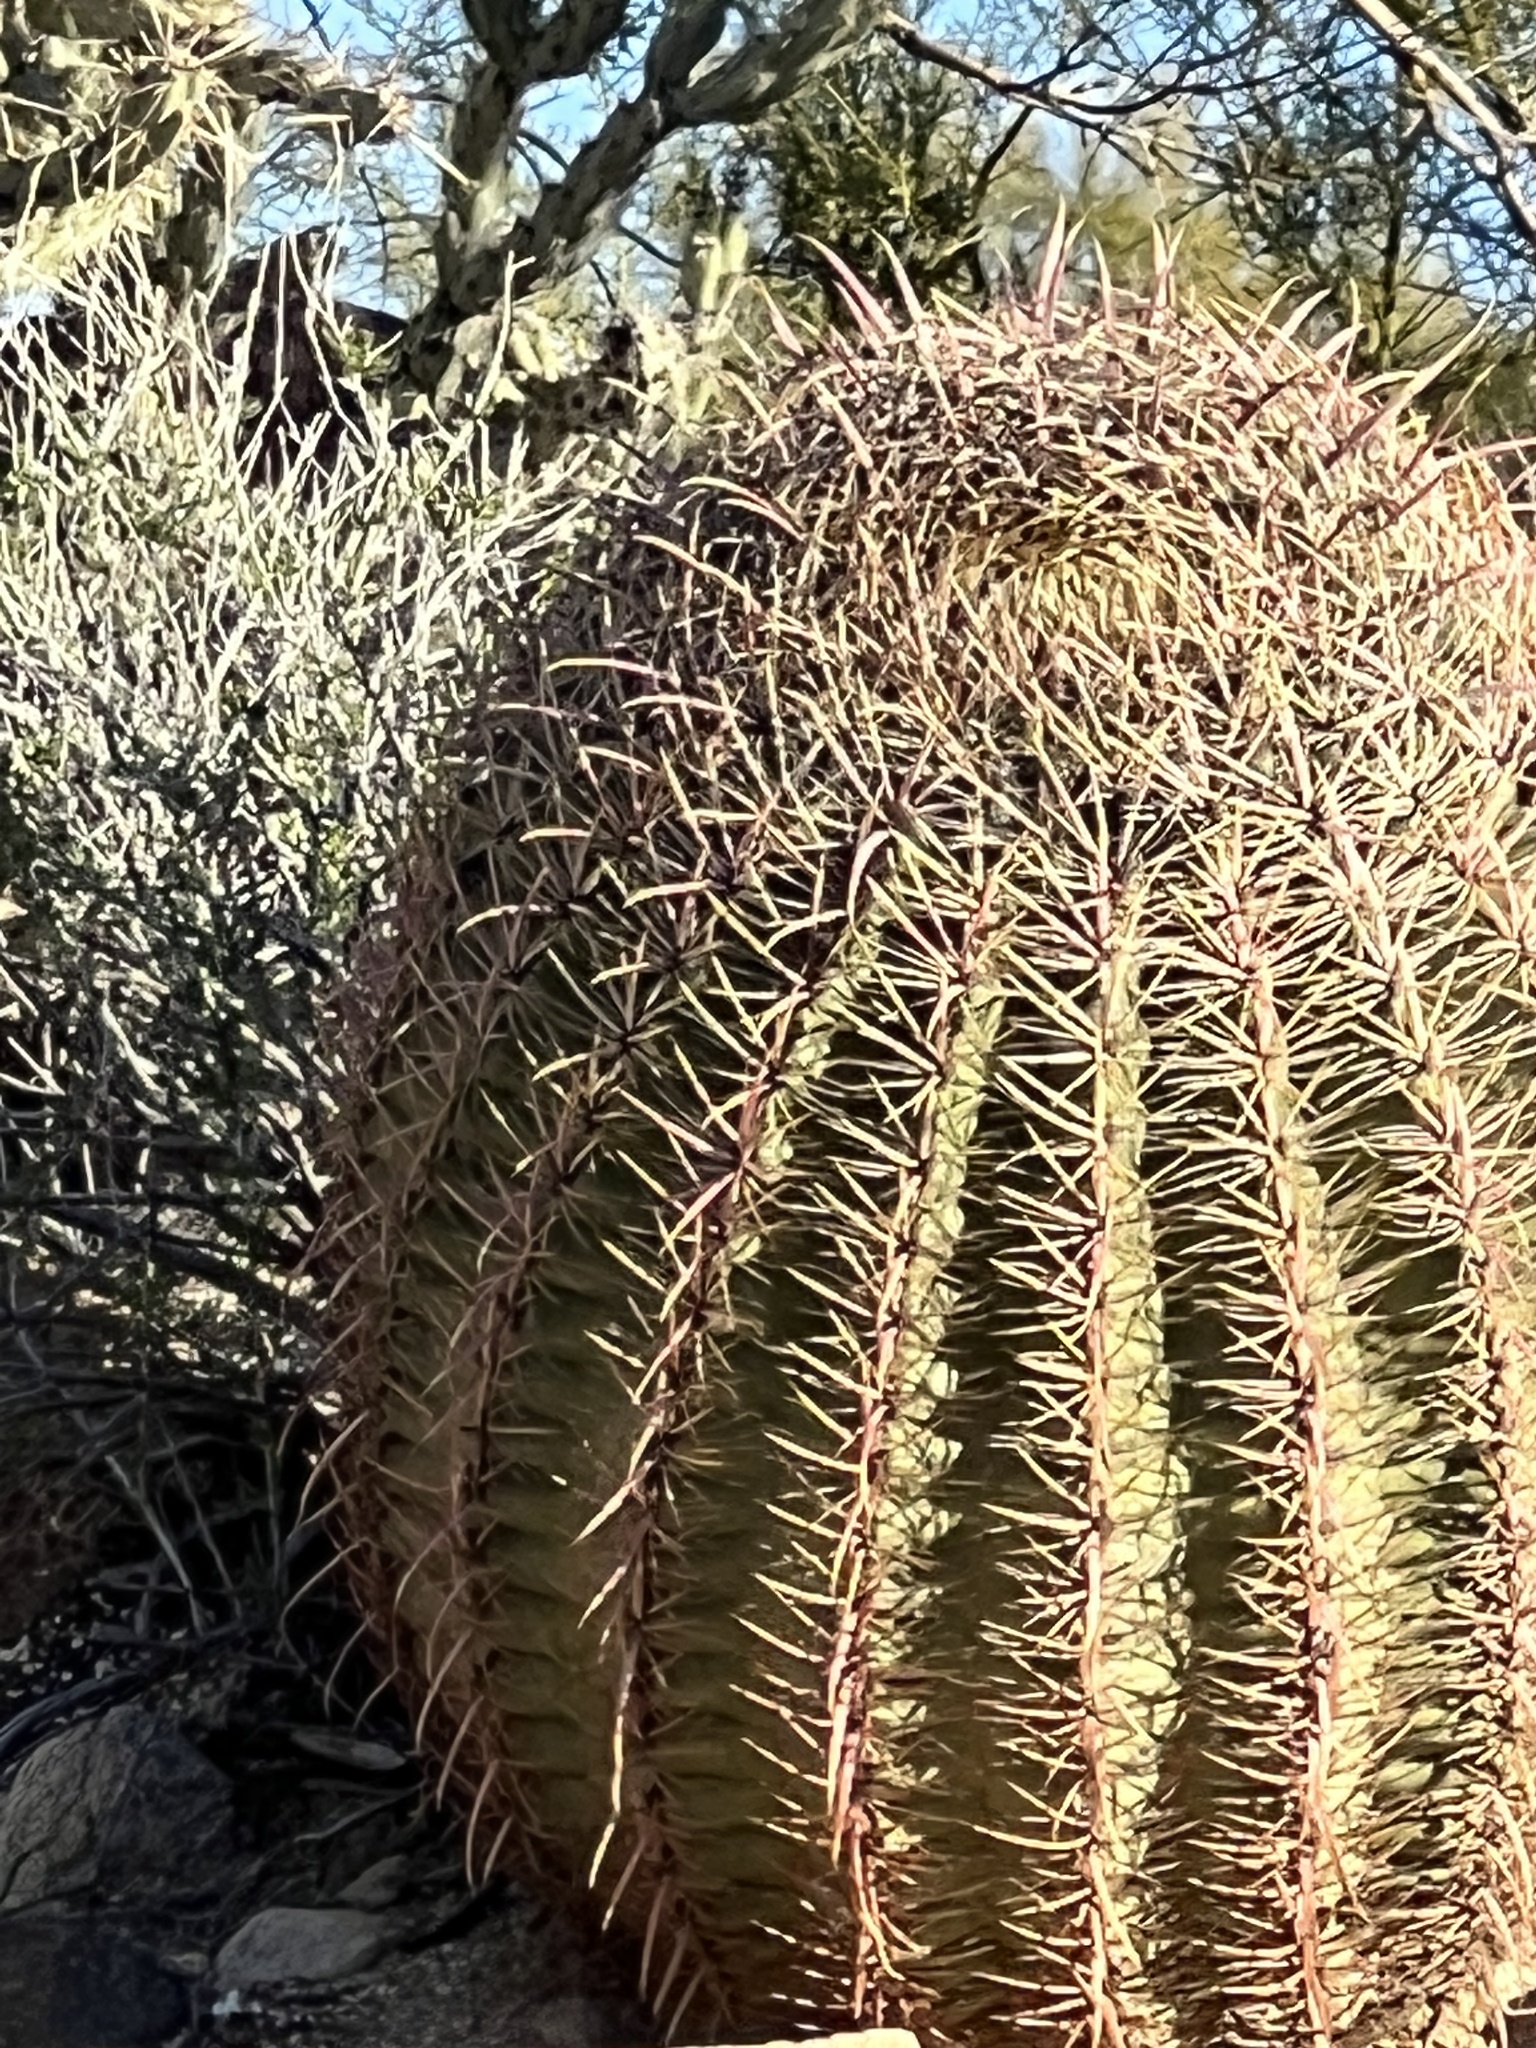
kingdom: Plantae
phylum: Tracheophyta
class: Magnoliopsida
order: Caryophyllales
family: Cactaceae
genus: Ferocactus
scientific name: Ferocactus cylindraceus
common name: California barrel cactus
